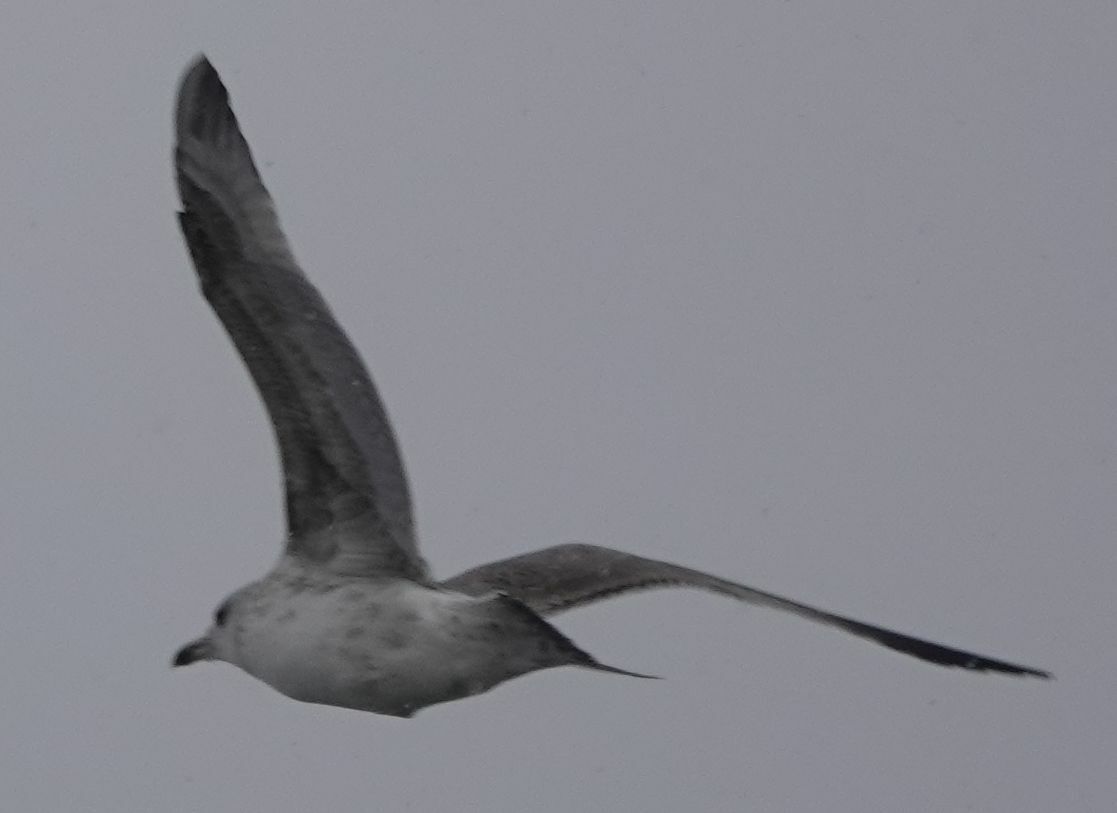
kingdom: Animalia
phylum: Chordata
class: Aves
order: Charadriiformes
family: Laridae
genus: Larus
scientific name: Larus cachinnans
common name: Caspian gull
